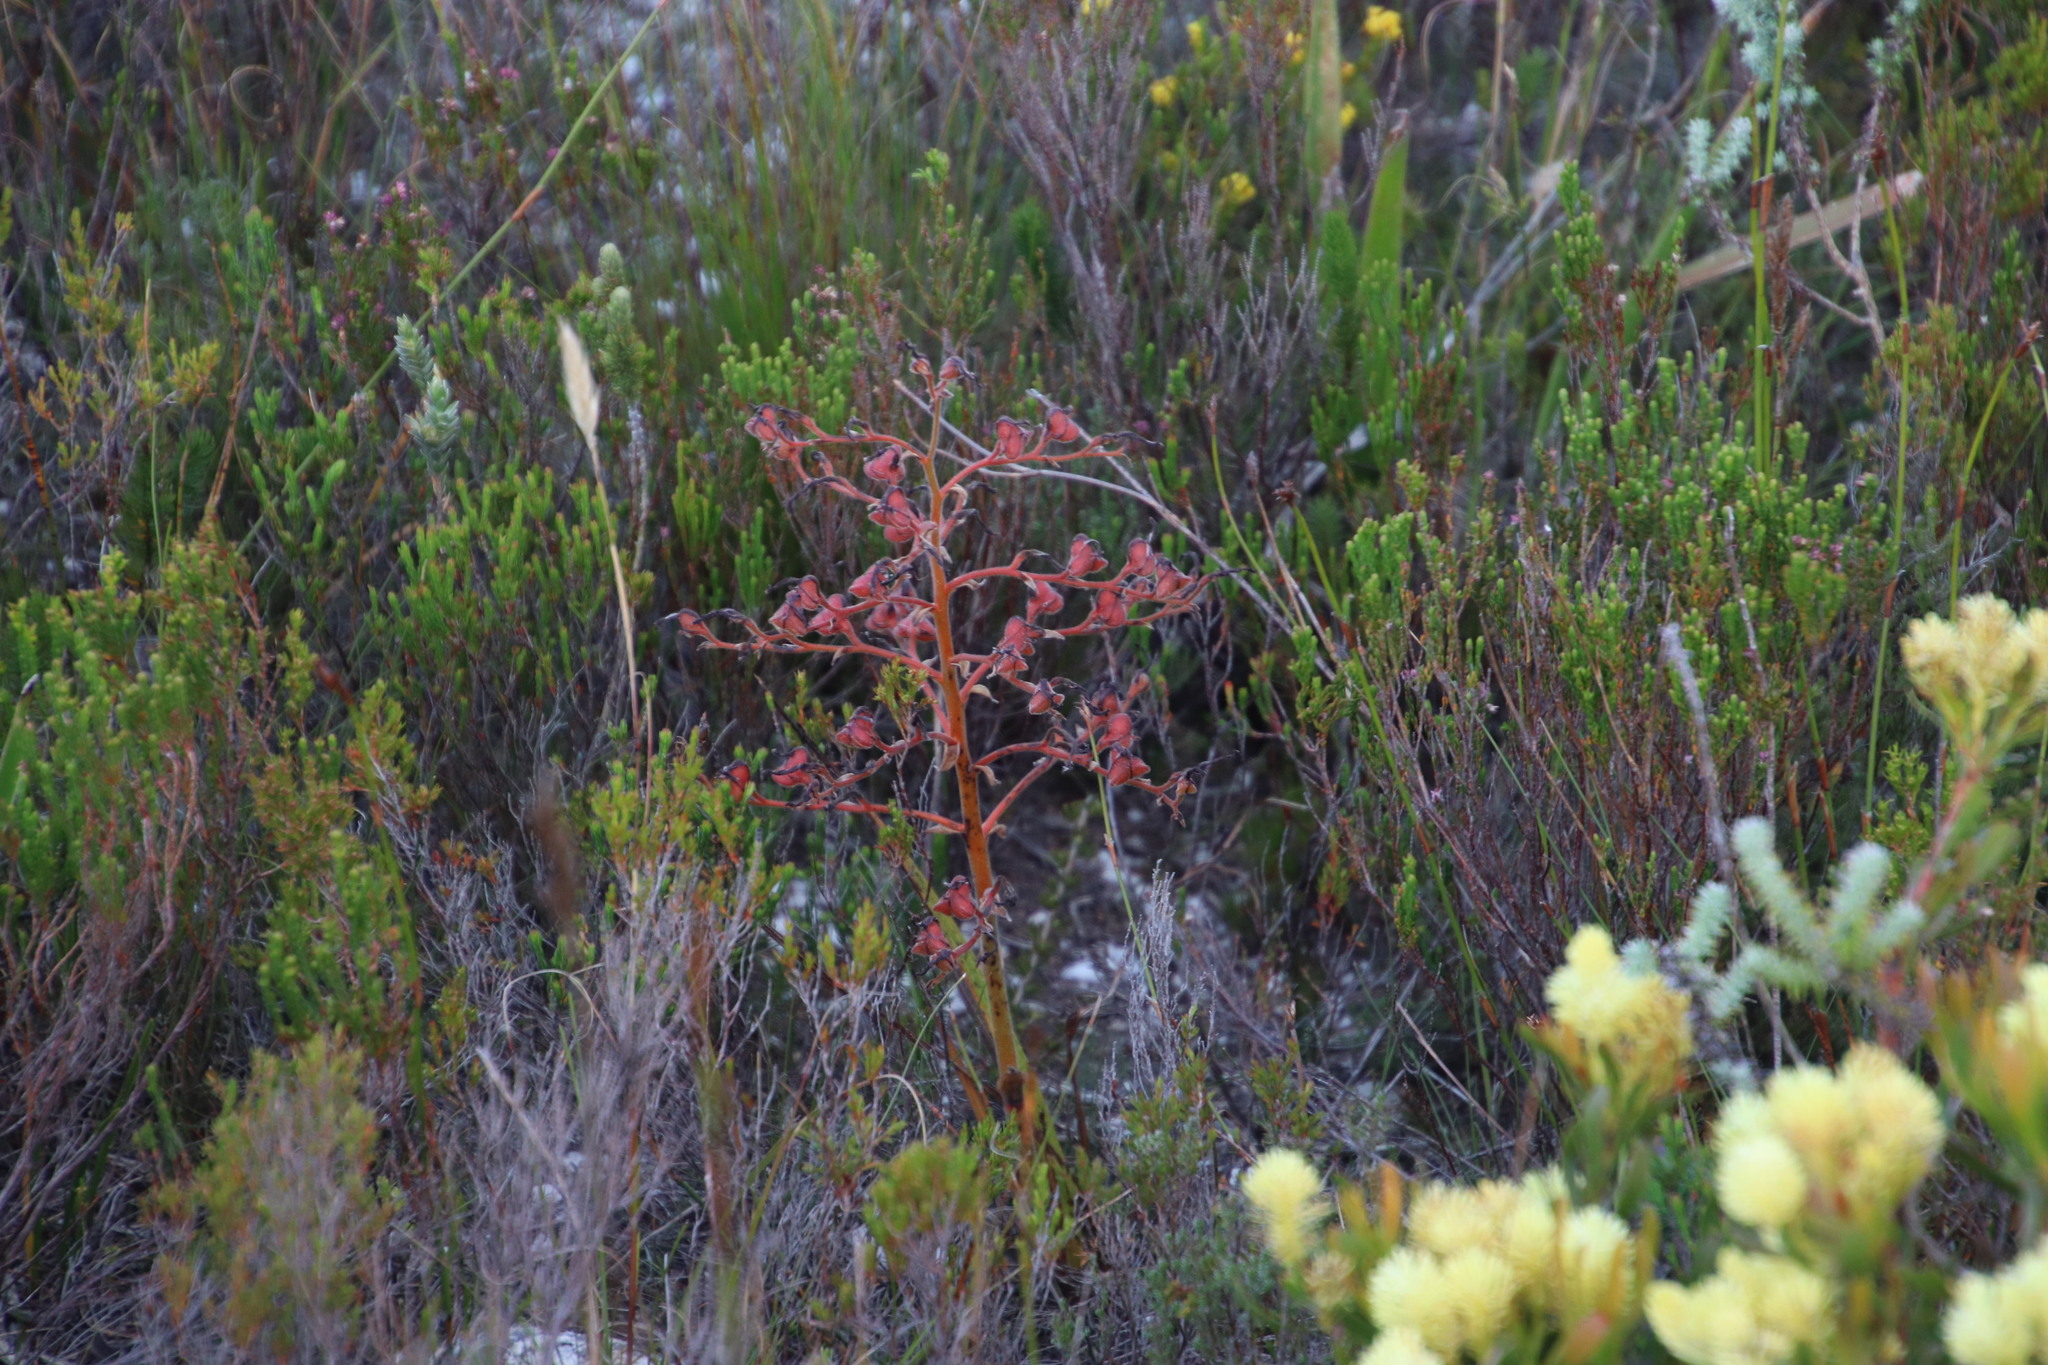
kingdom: Plantae
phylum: Tracheophyta
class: Liliopsida
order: Commelinales
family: Haemodoraceae
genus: Wachendorfia
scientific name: Wachendorfia paniculata
